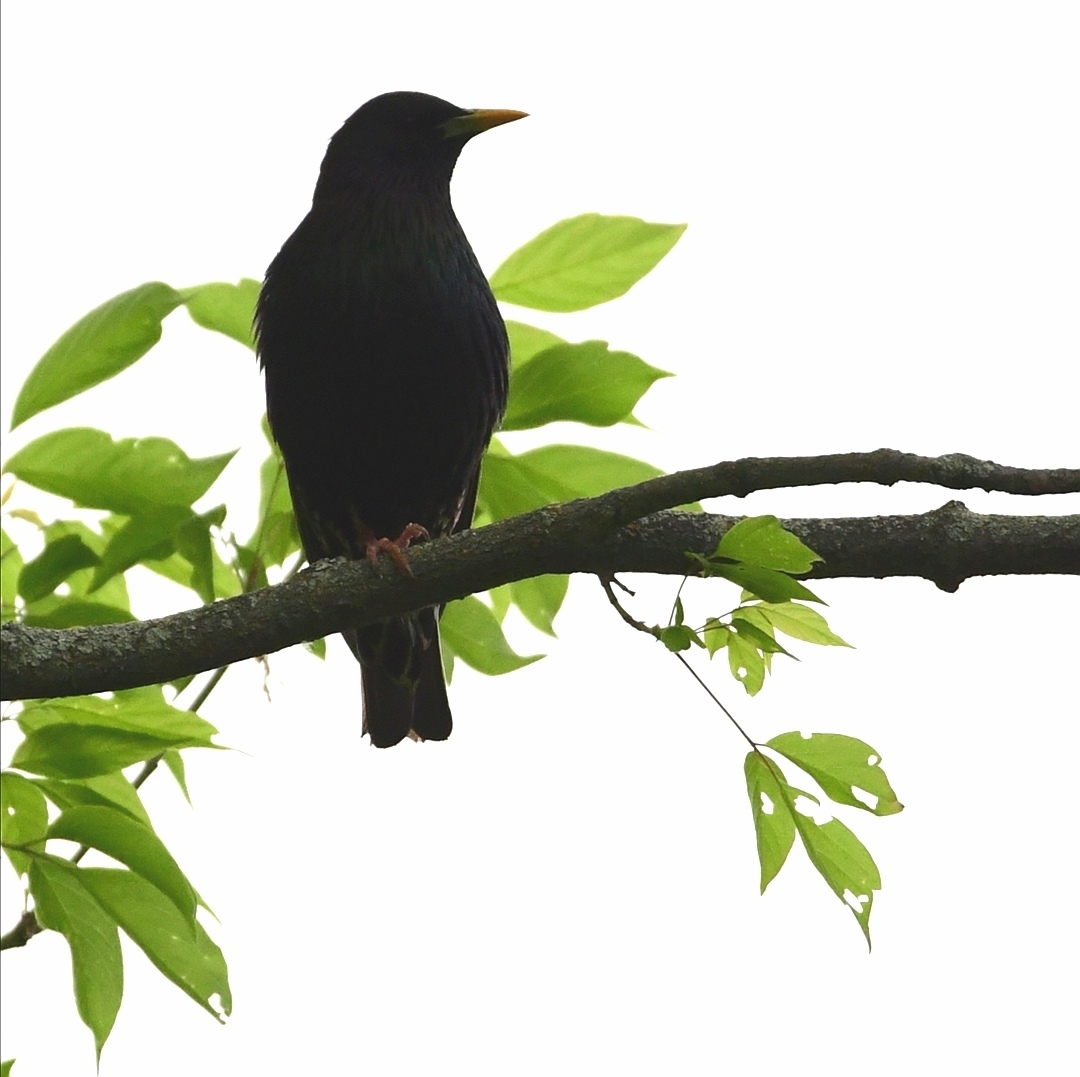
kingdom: Animalia
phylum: Chordata
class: Aves
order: Passeriformes
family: Icteridae
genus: Molothrus
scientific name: Molothrus ater
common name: Brown-headed cowbird
